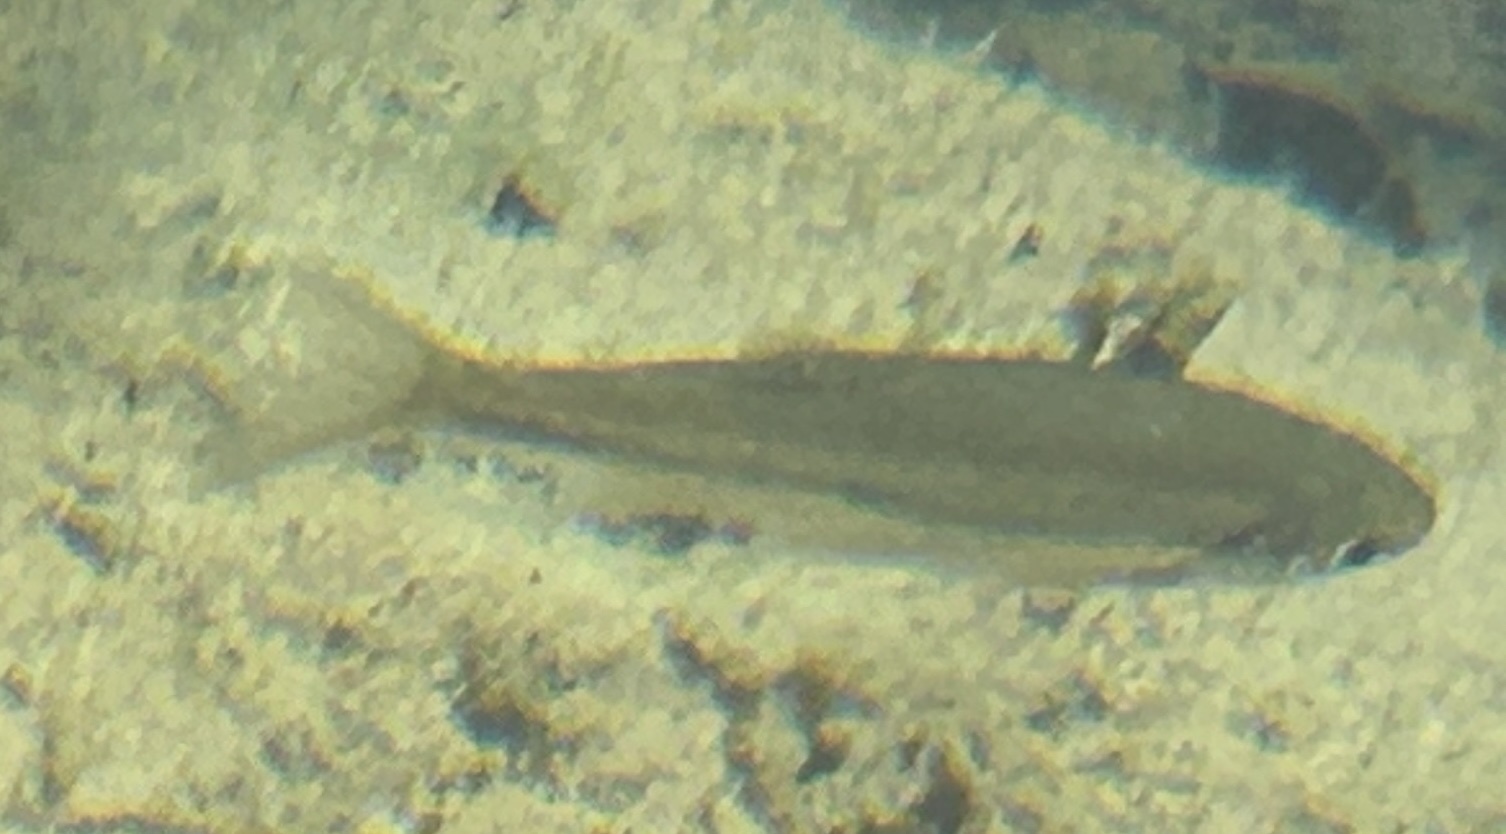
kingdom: Animalia
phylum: Chordata
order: Cypriniformes
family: Cyprinidae
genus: Tropidophoxinellus
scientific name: Tropidophoxinellus spartiaticus
